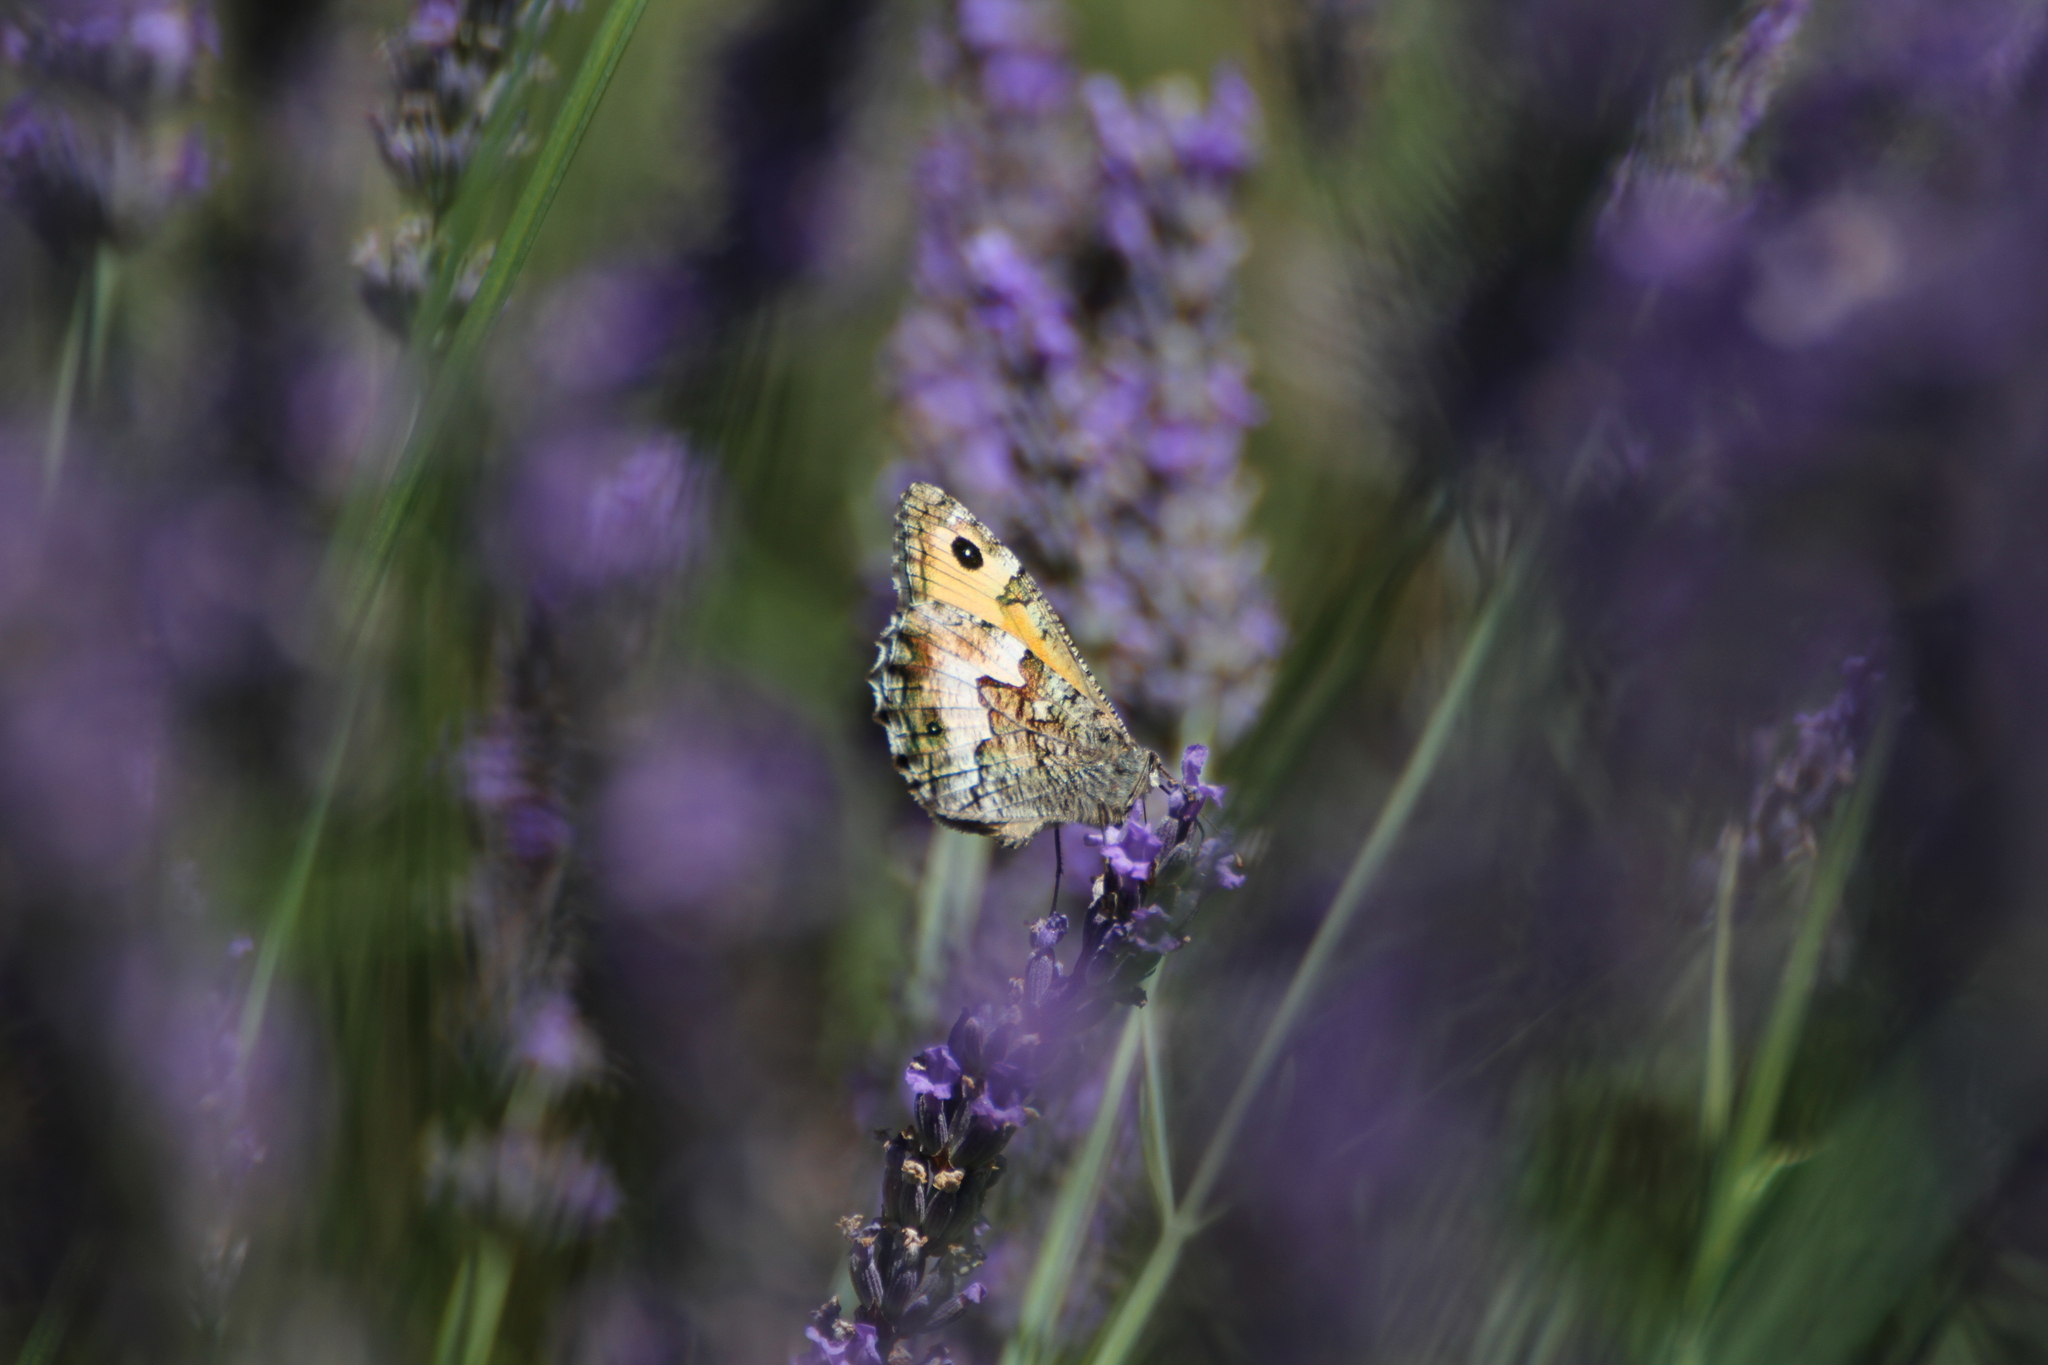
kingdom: Animalia
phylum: Arthropoda
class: Insecta
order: Lepidoptera
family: Nymphalidae
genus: Hipparchia
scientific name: Hipparchia semele
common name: Grayling
